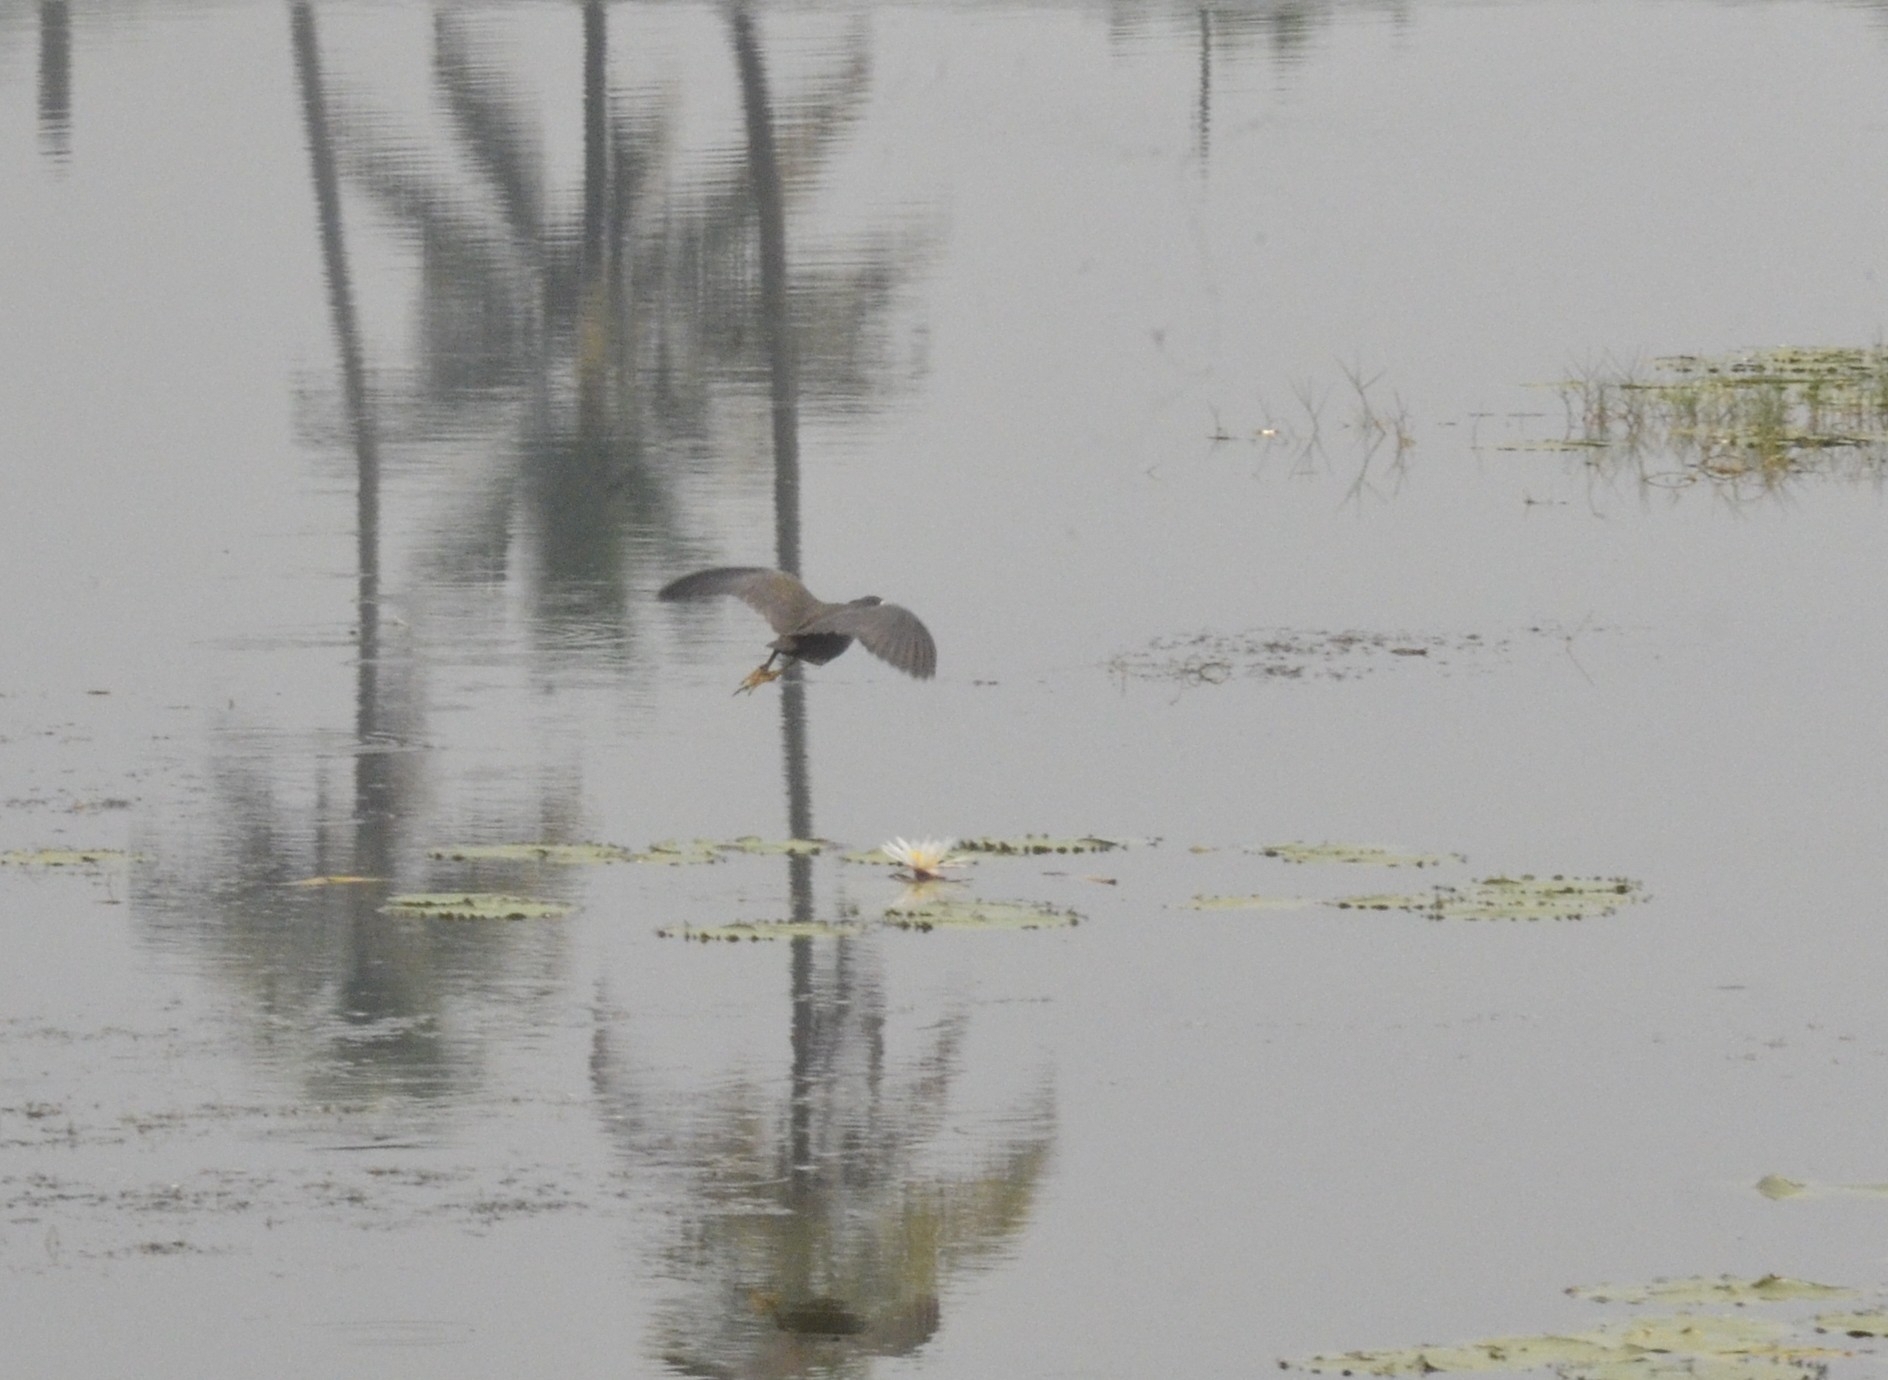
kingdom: Animalia
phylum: Chordata
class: Aves
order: Gruiformes
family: Rallidae
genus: Amaurornis
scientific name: Amaurornis phoenicurus
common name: White-breasted waterhen
